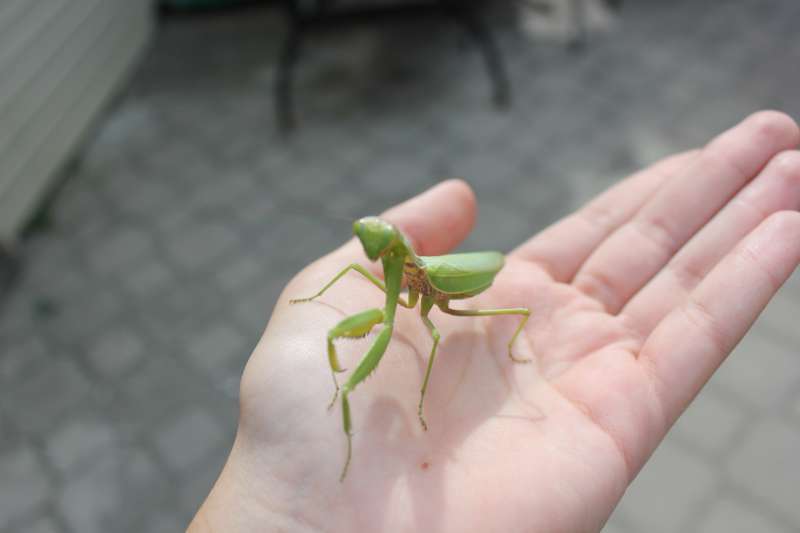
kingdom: Animalia
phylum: Arthropoda
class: Insecta
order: Mantodea
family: Mantidae
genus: Hierodula
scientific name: Hierodula transcaucasica
